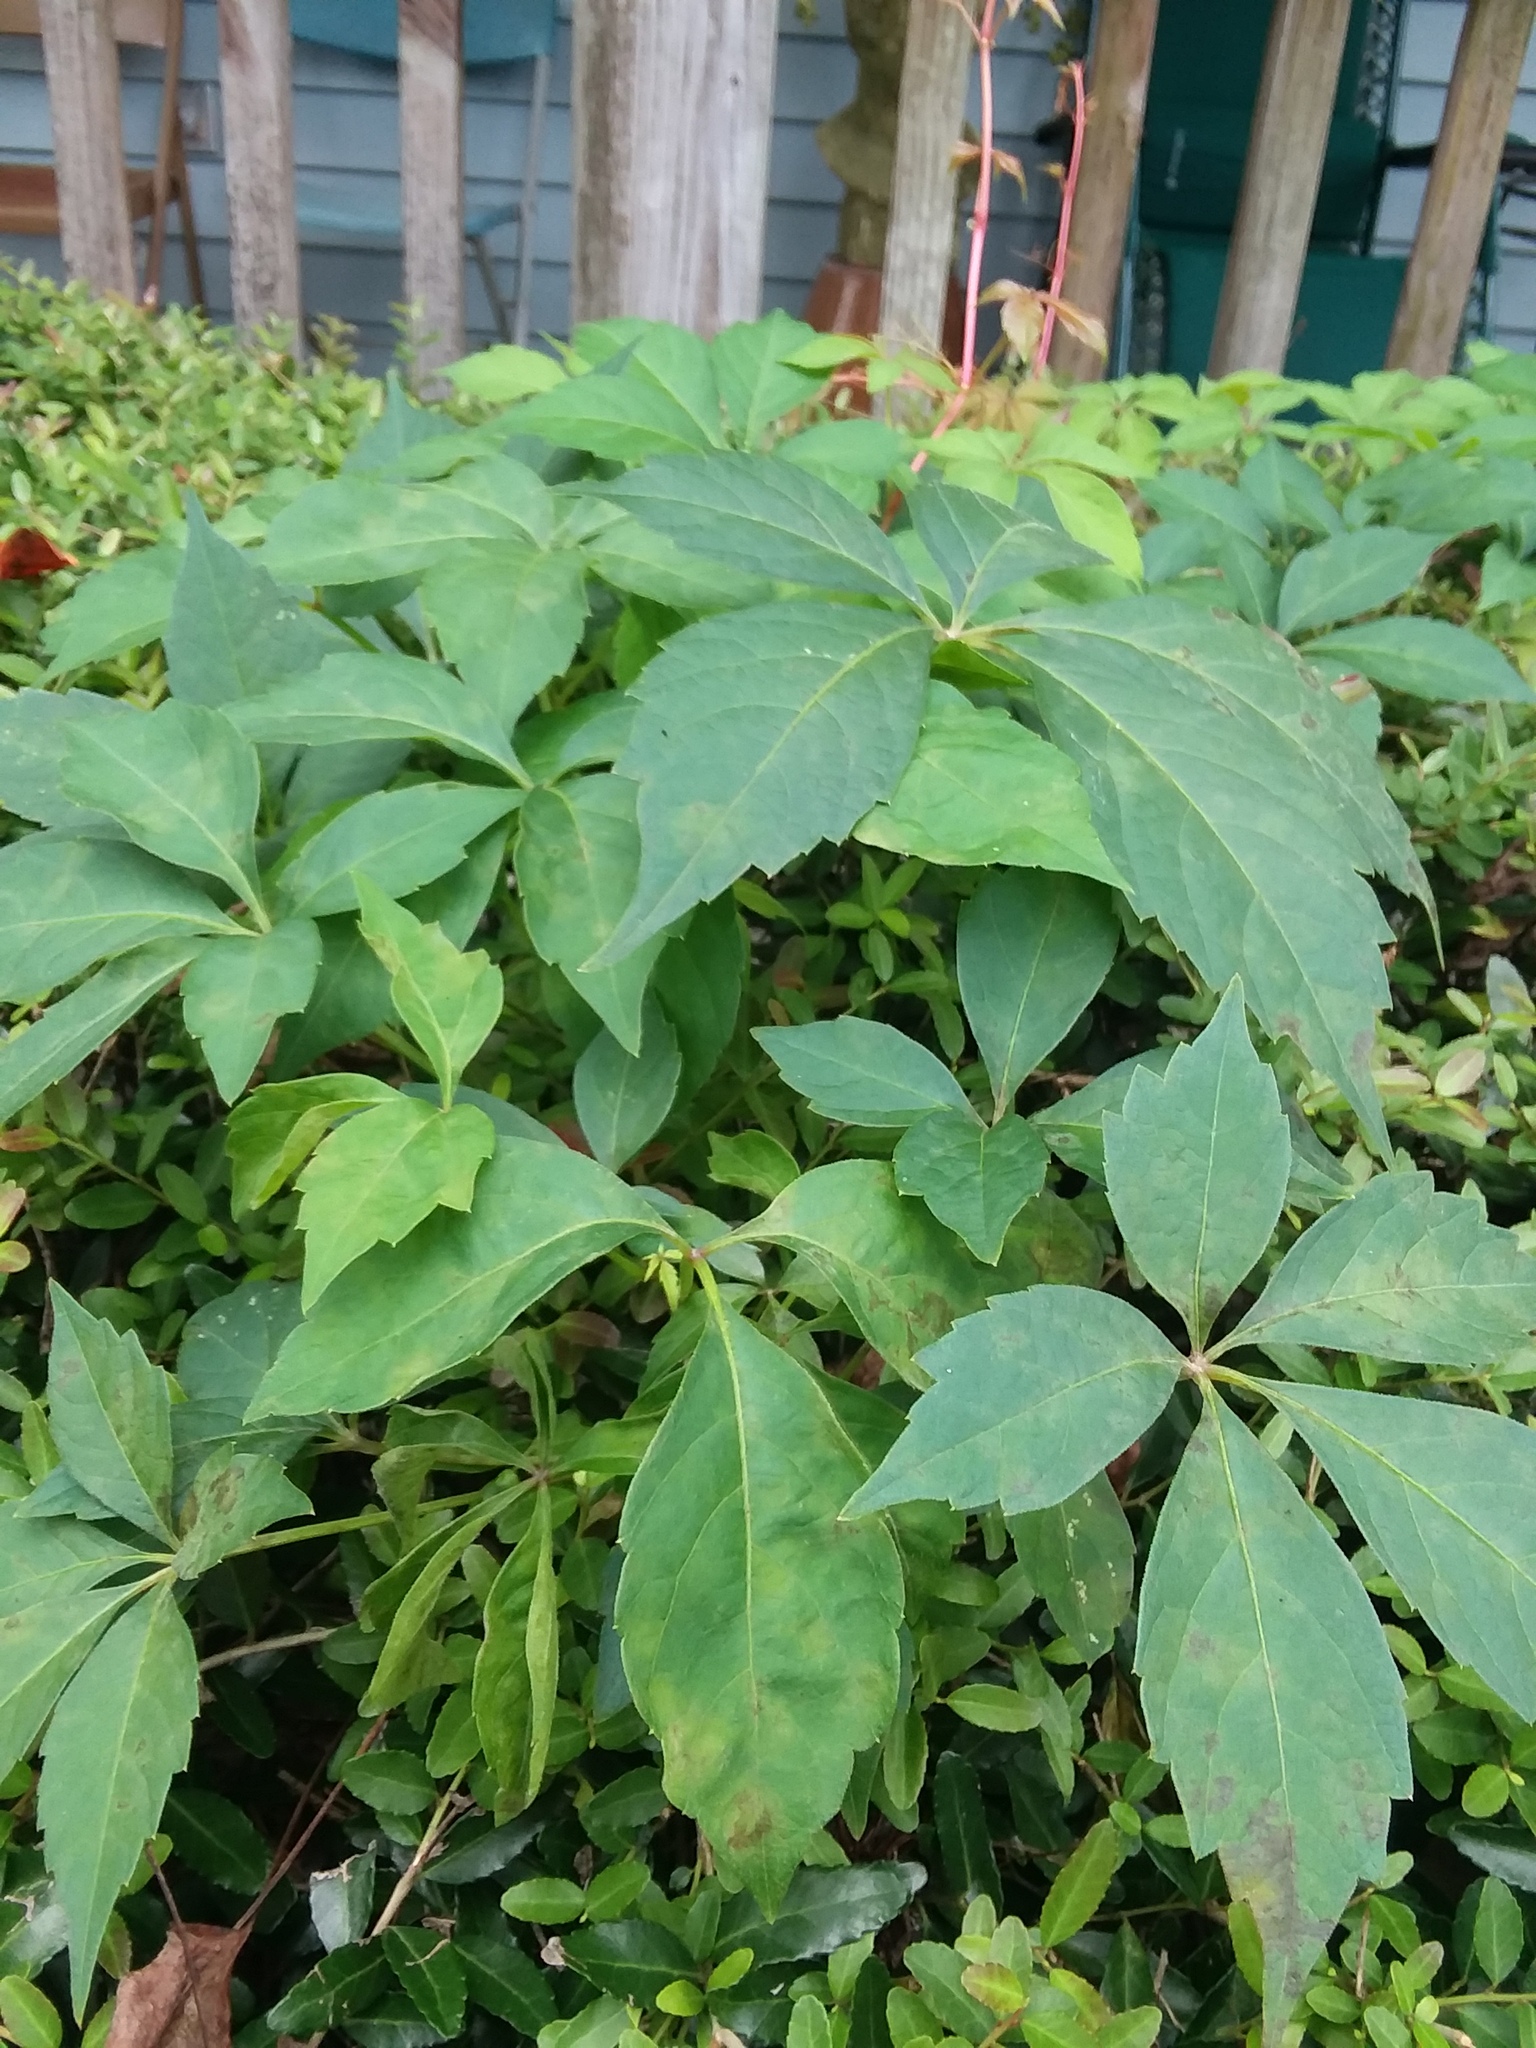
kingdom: Plantae
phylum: Tracheophyta
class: Magnoliopsida
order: Vitales
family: Vitaceae
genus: Parthenocissus
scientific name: Parthenocissus quinquefolia
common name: Virginia-creeper
